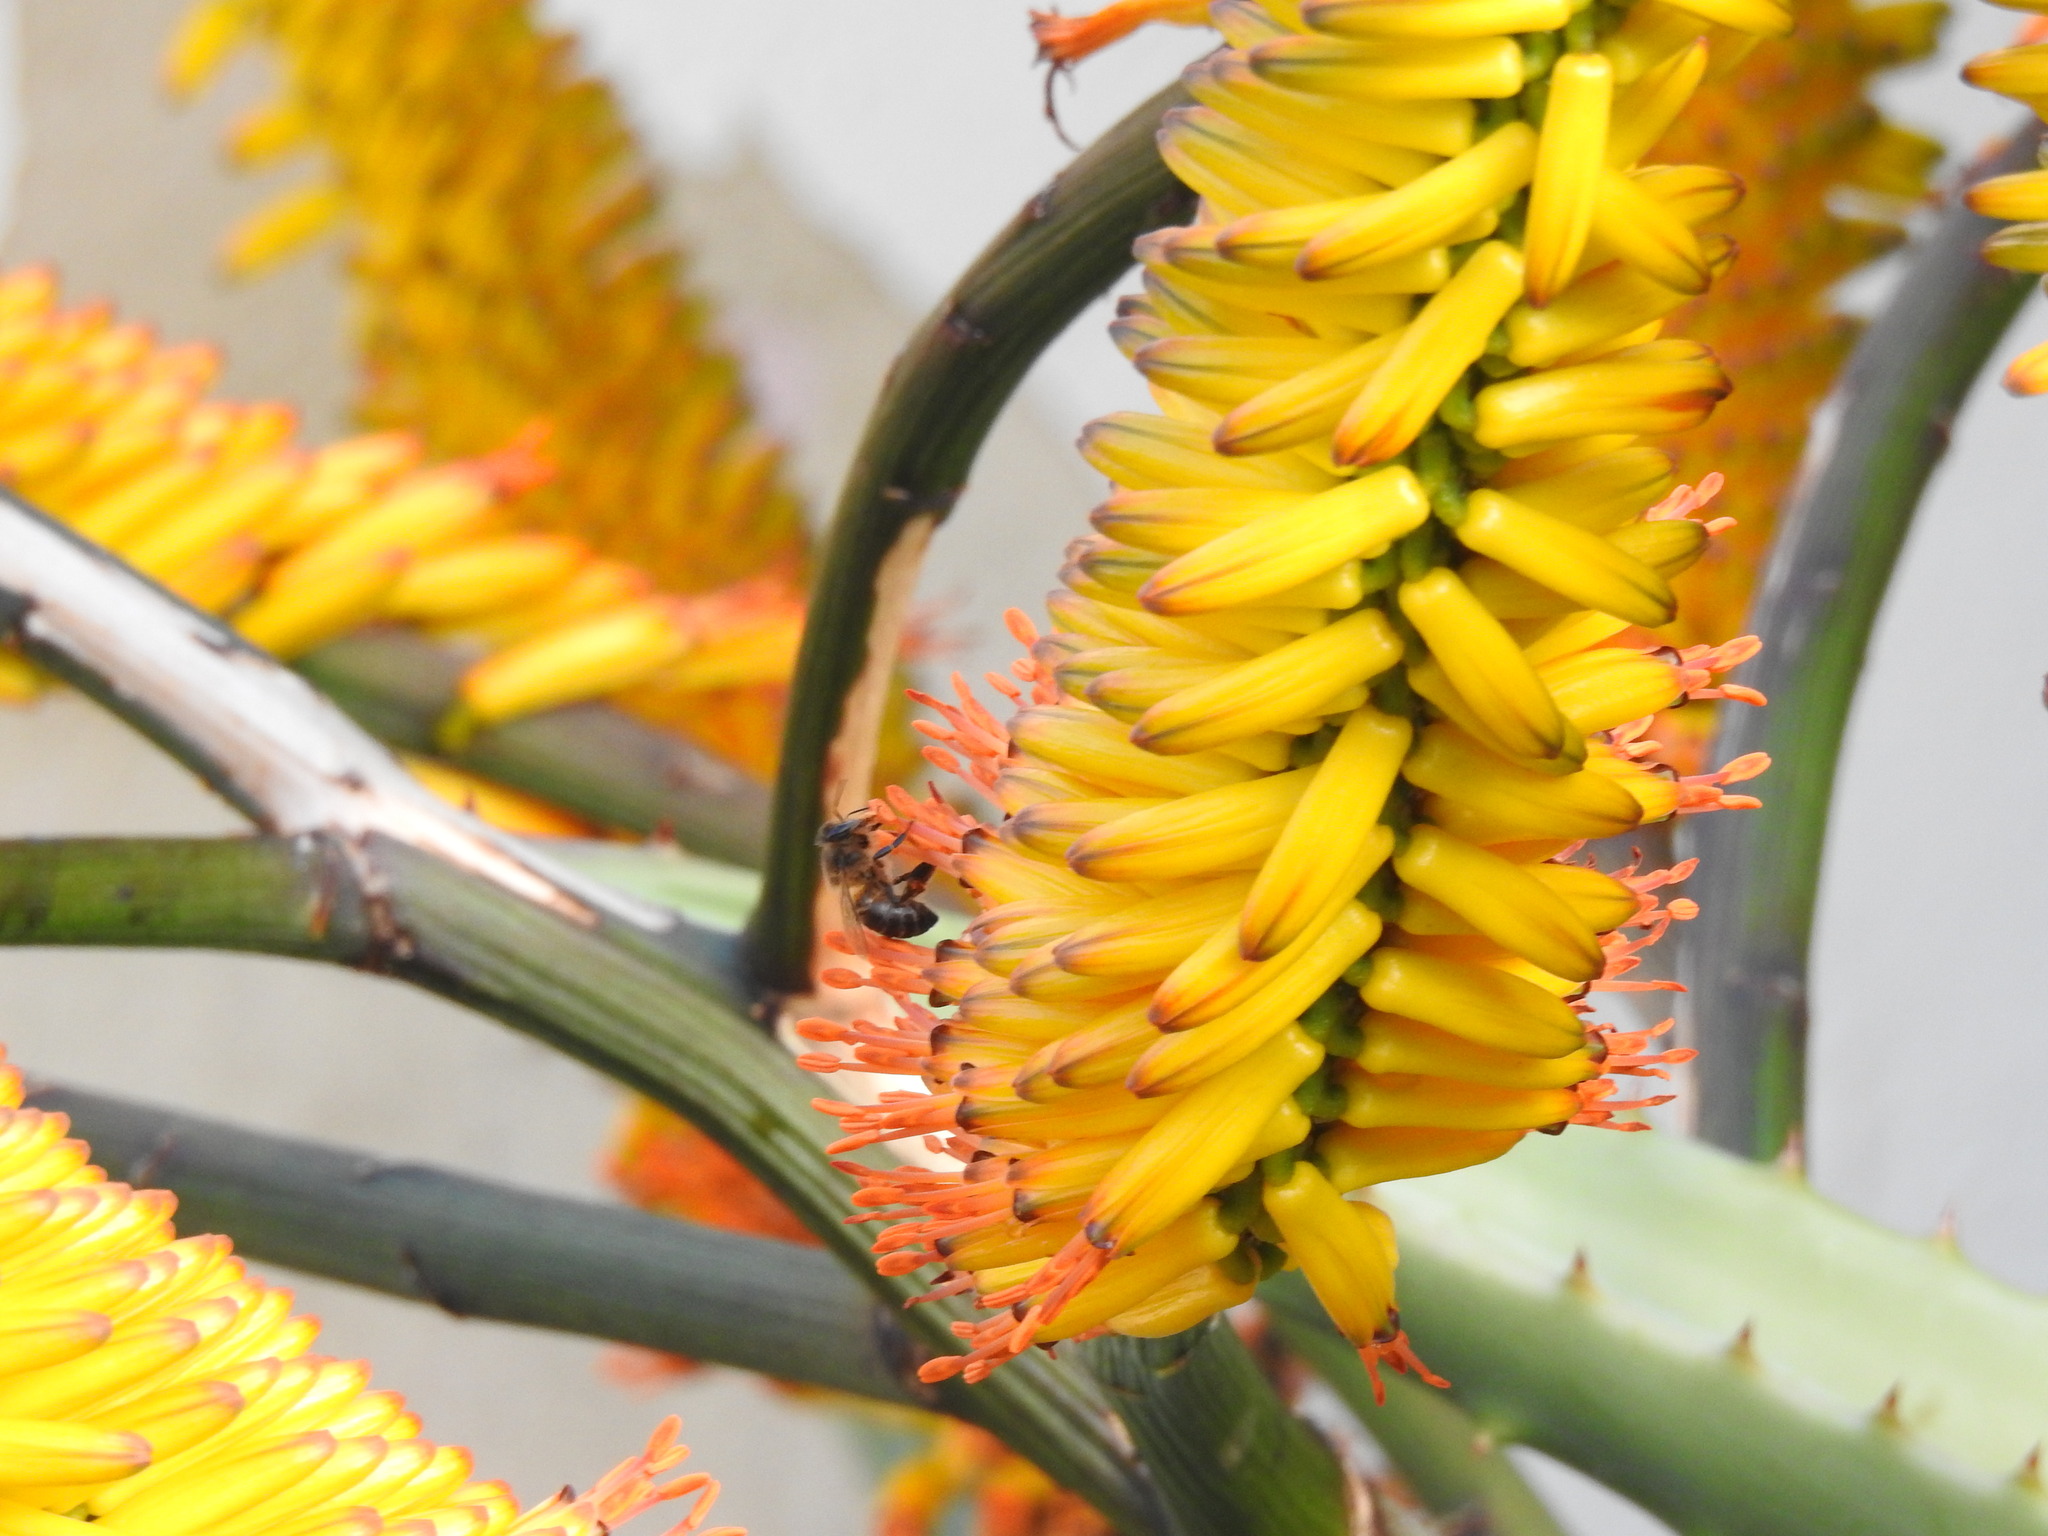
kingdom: Animalia
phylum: Arthropoda
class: Insecta
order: Hymenoptera
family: Apidae
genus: Apis
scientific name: Apis mellifera
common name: Honey bee
